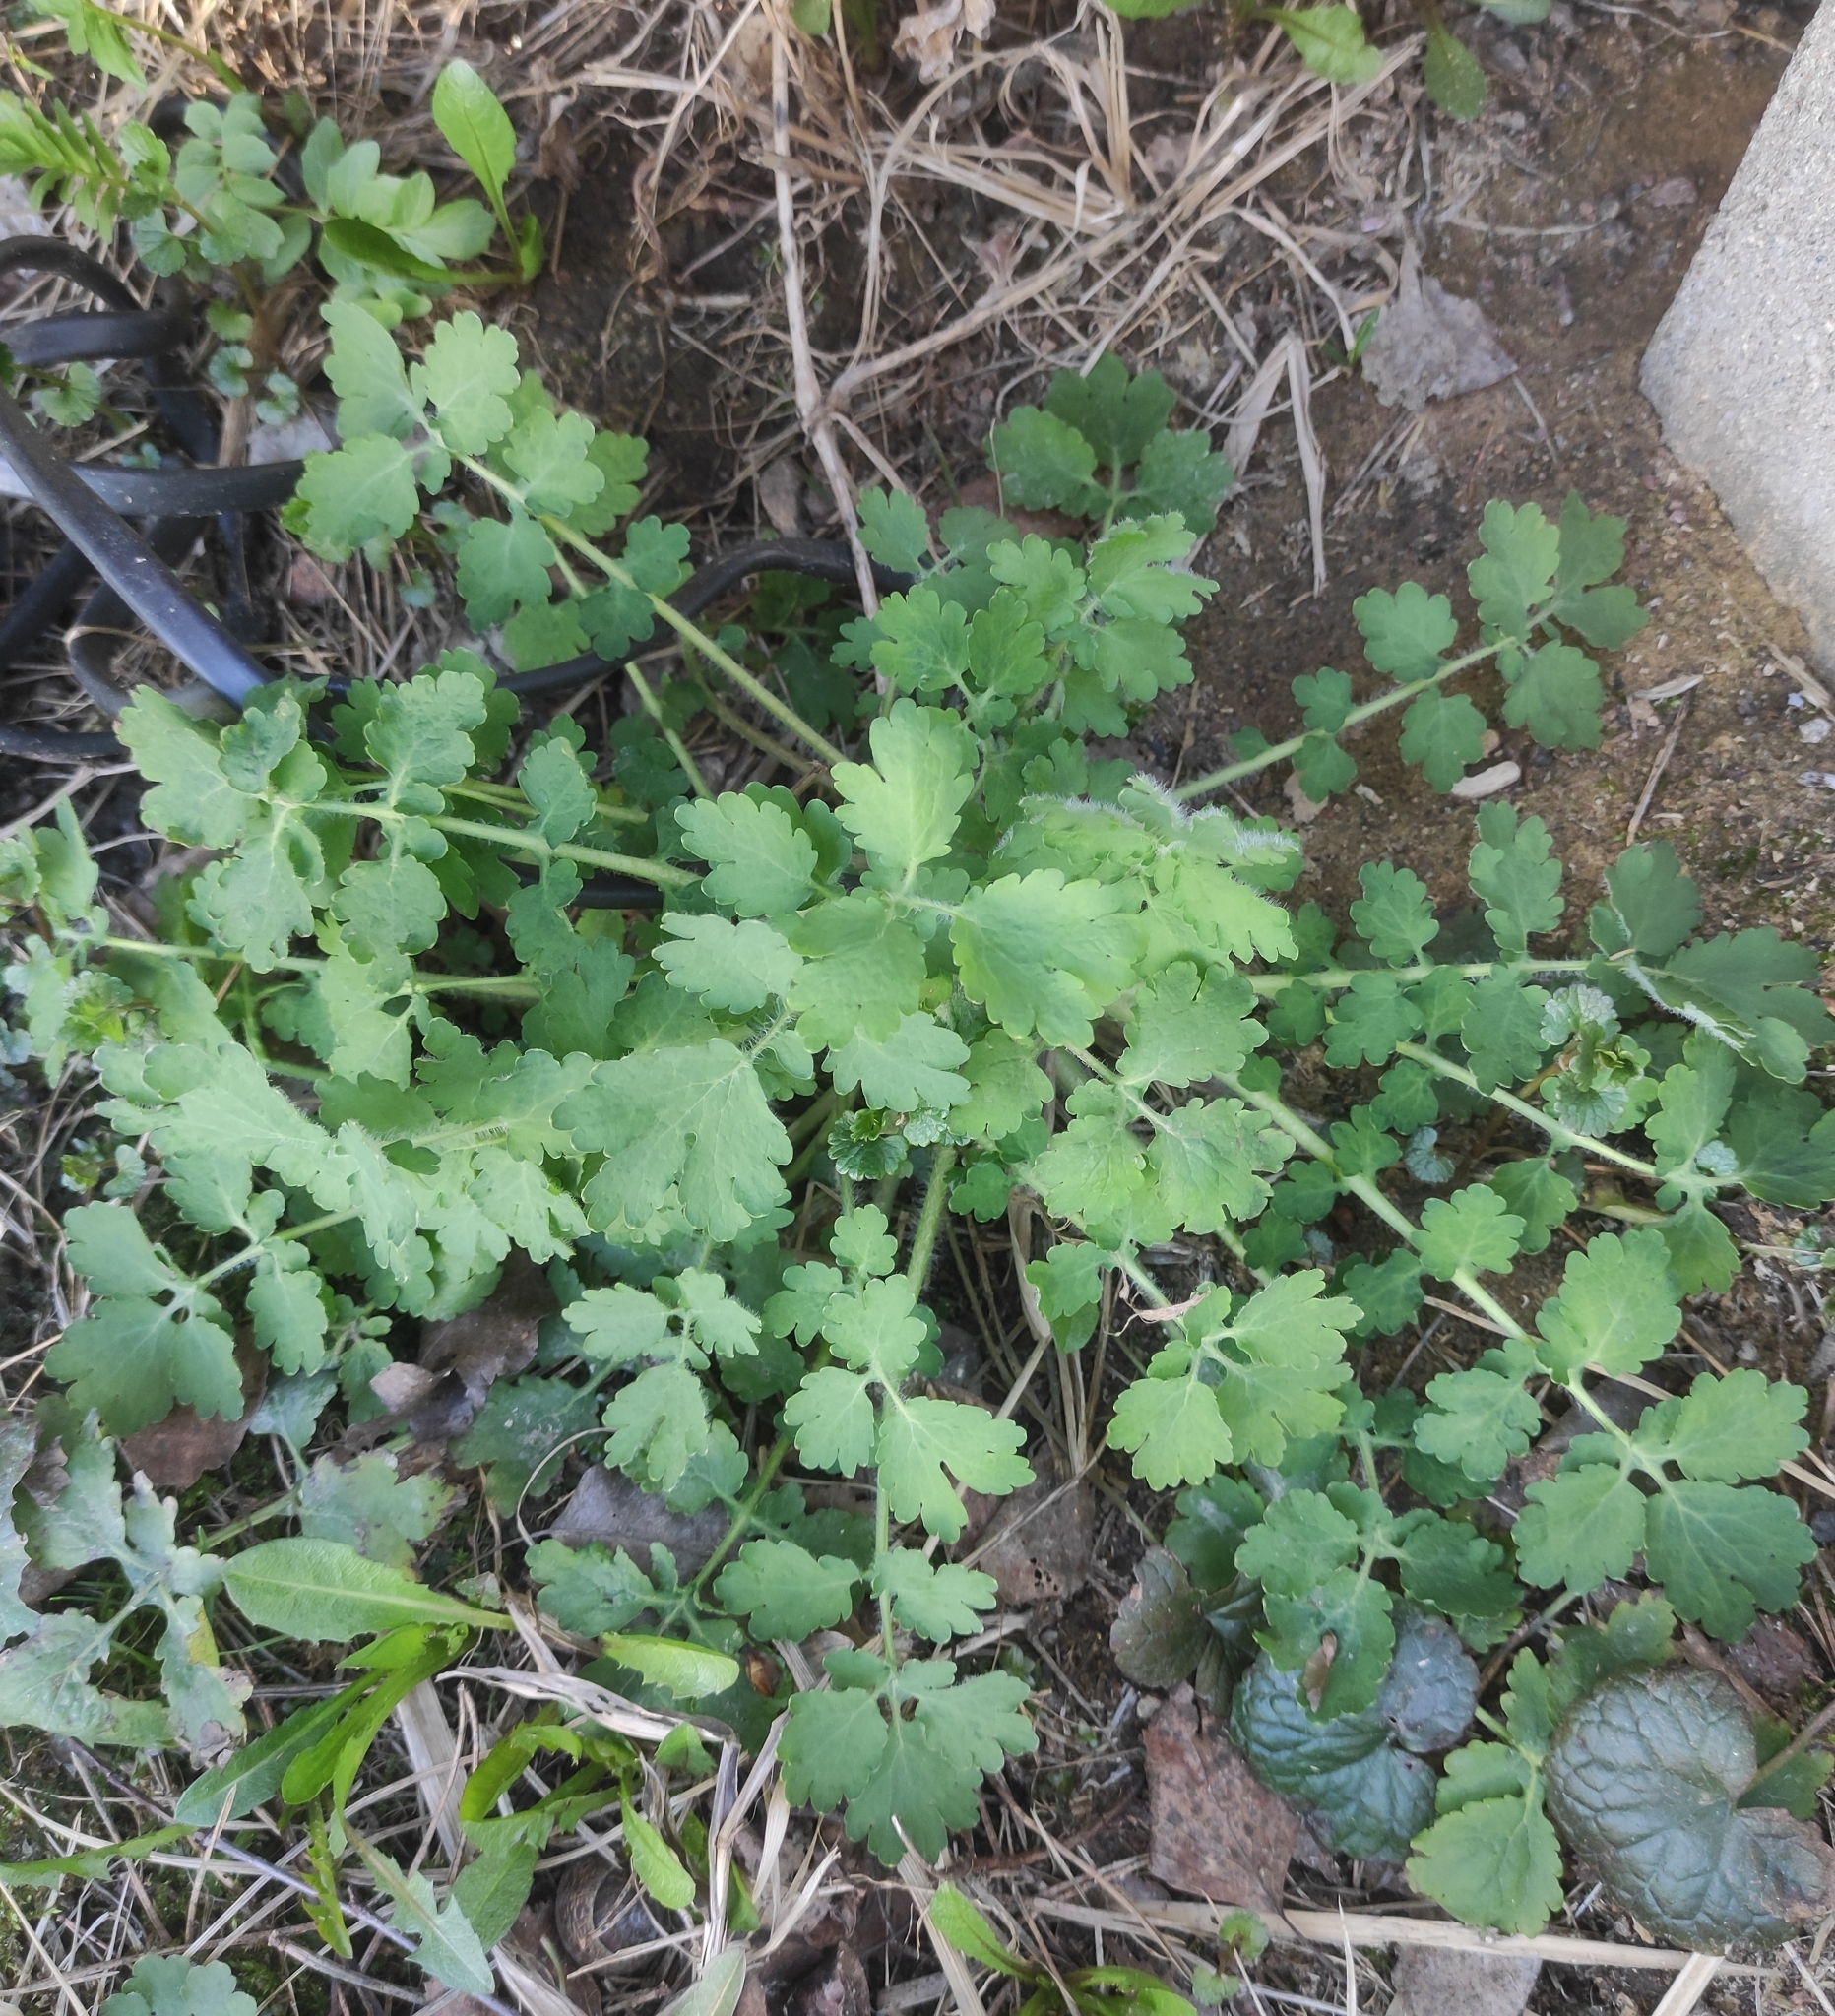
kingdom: Plantae
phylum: Tracheophyta
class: Magnoliopsida
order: Ranunculales
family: Papaveraceae
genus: Chelidonium
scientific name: Chelidonium majus
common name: Greater celandine
